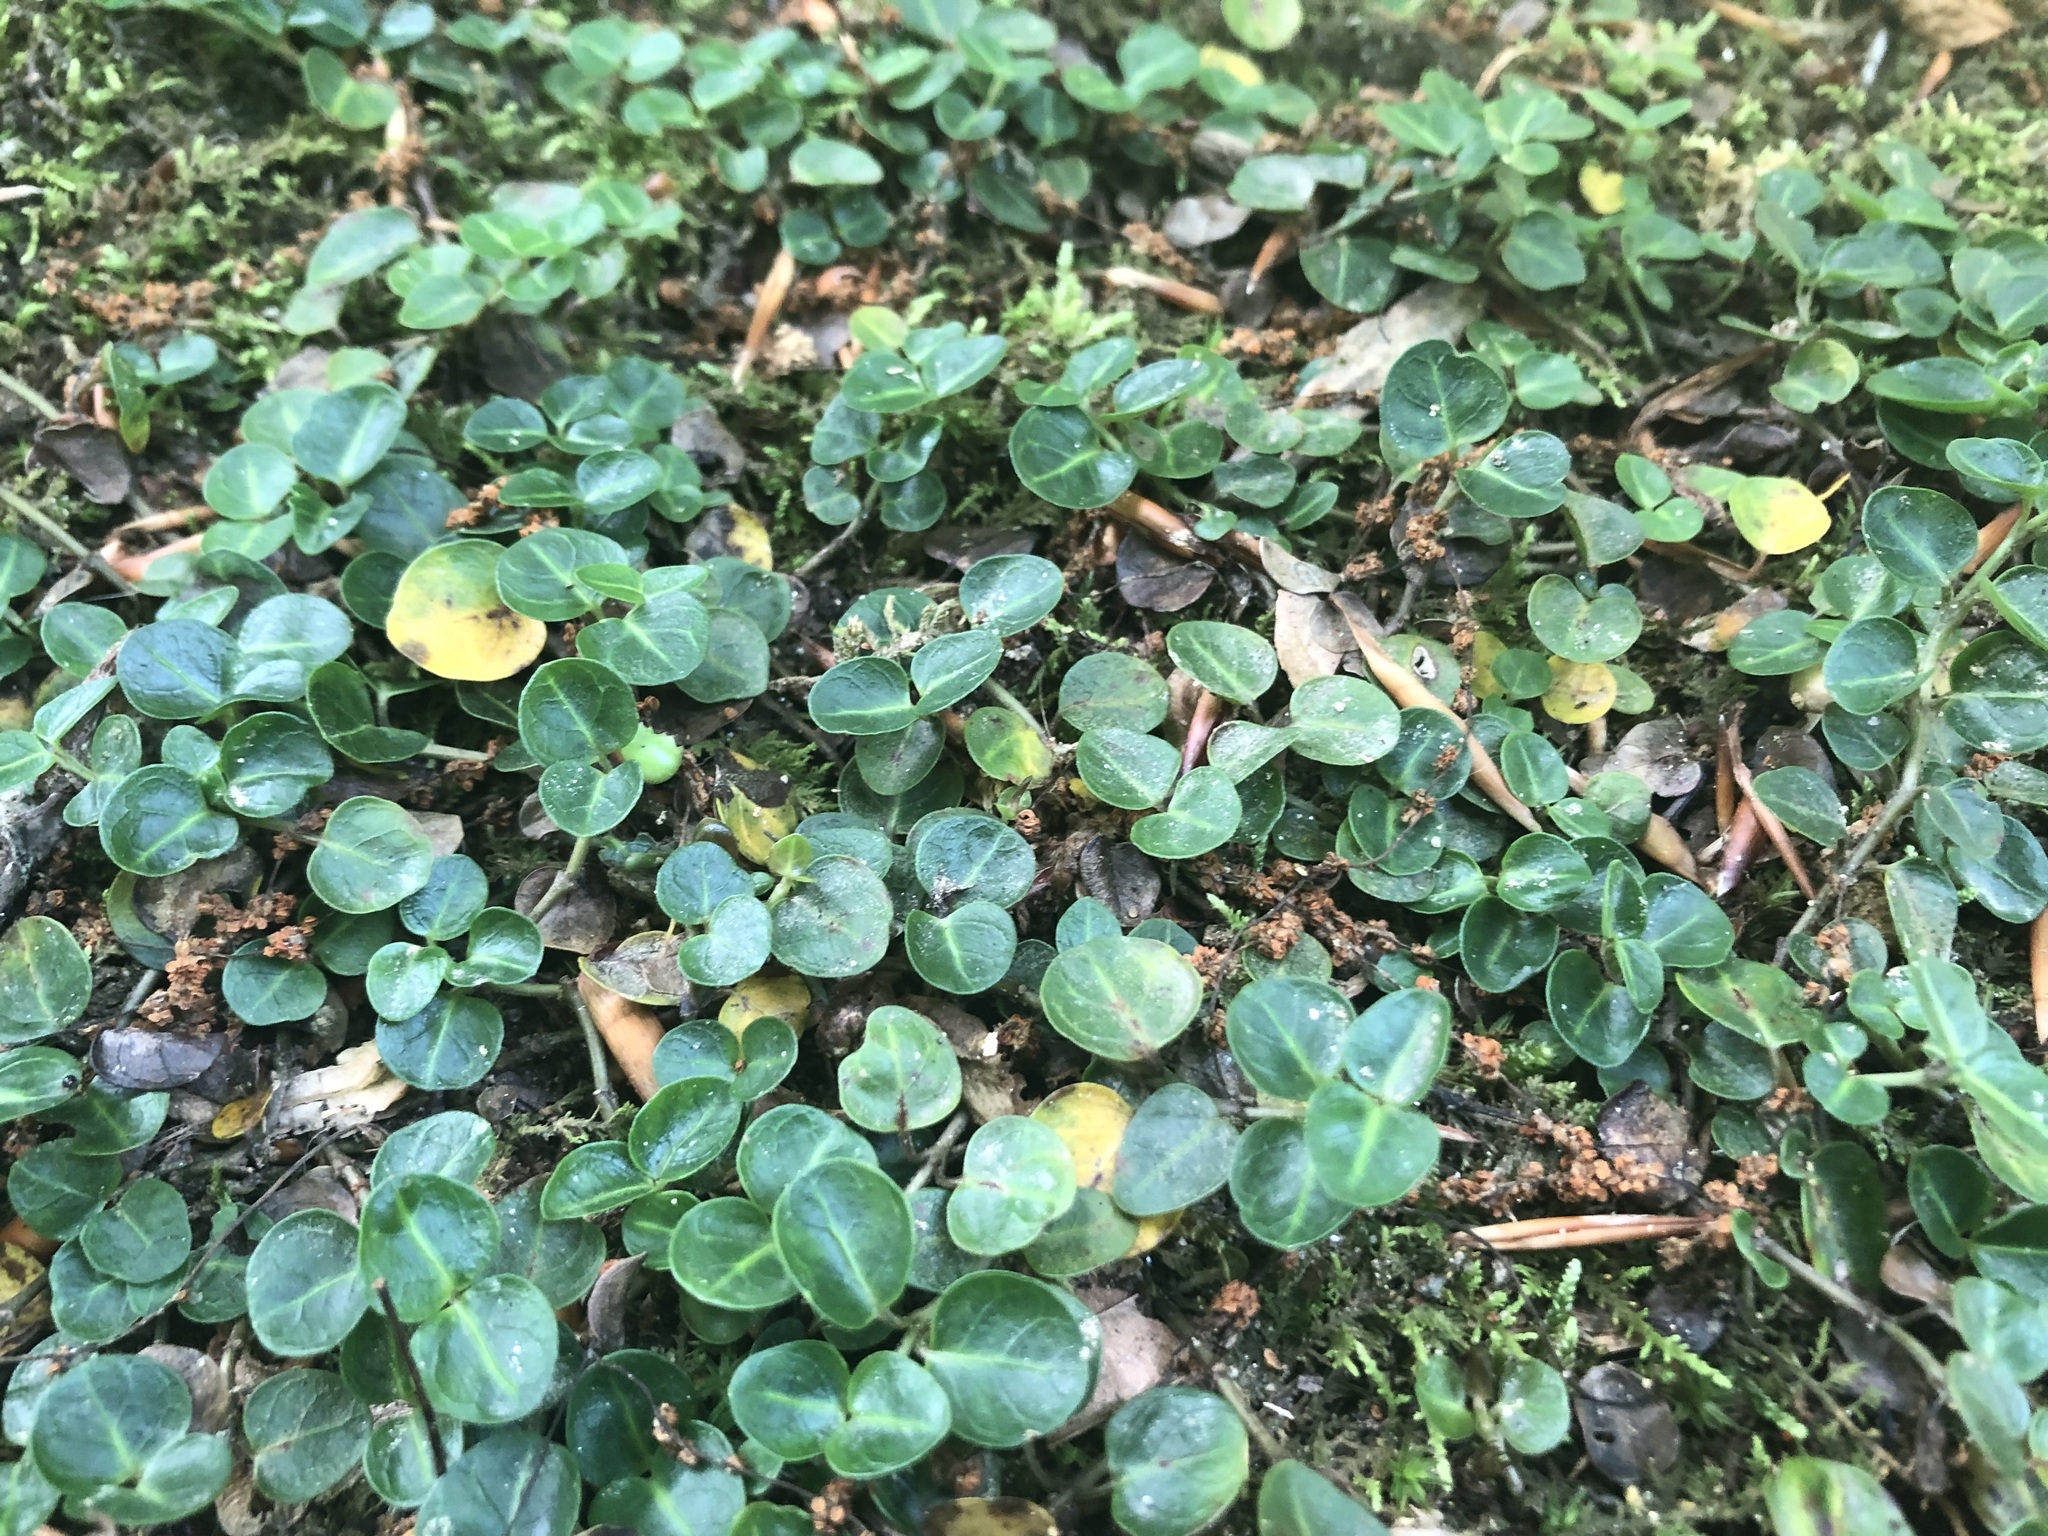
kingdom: Plantae
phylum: Tracheophyta
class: Magnoliopsida
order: Gentianales
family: Rubiaceae
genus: Mitchella
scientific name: Mitchella repens
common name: Partridge-berry
